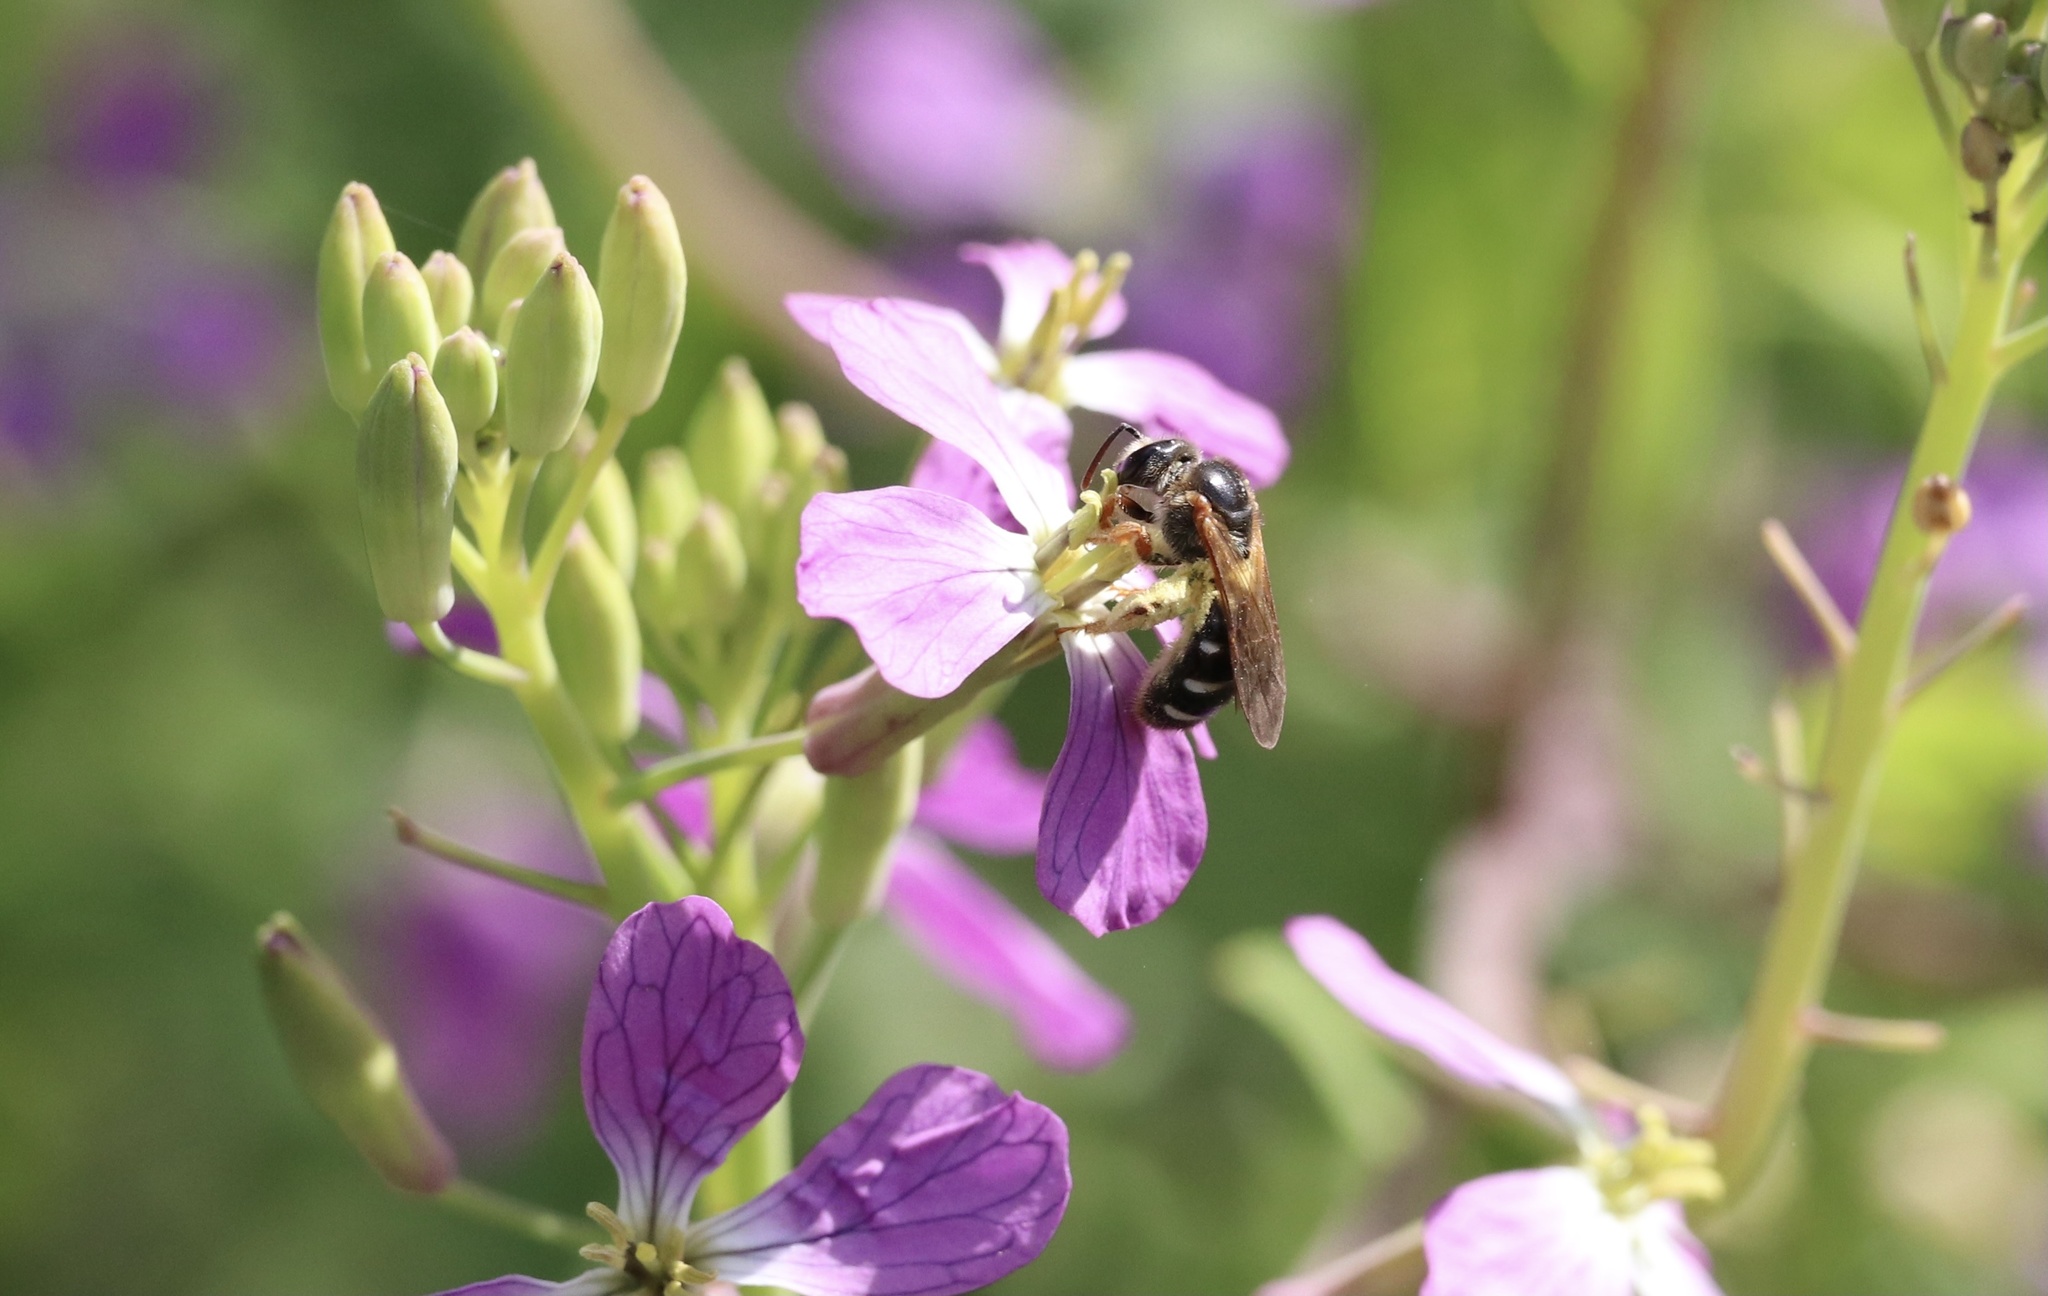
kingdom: Animalia
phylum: Arthropoda
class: Insecta
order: Hymenoptera
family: Halictidae
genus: Ruizantheda
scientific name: Ruizantheda proxima
